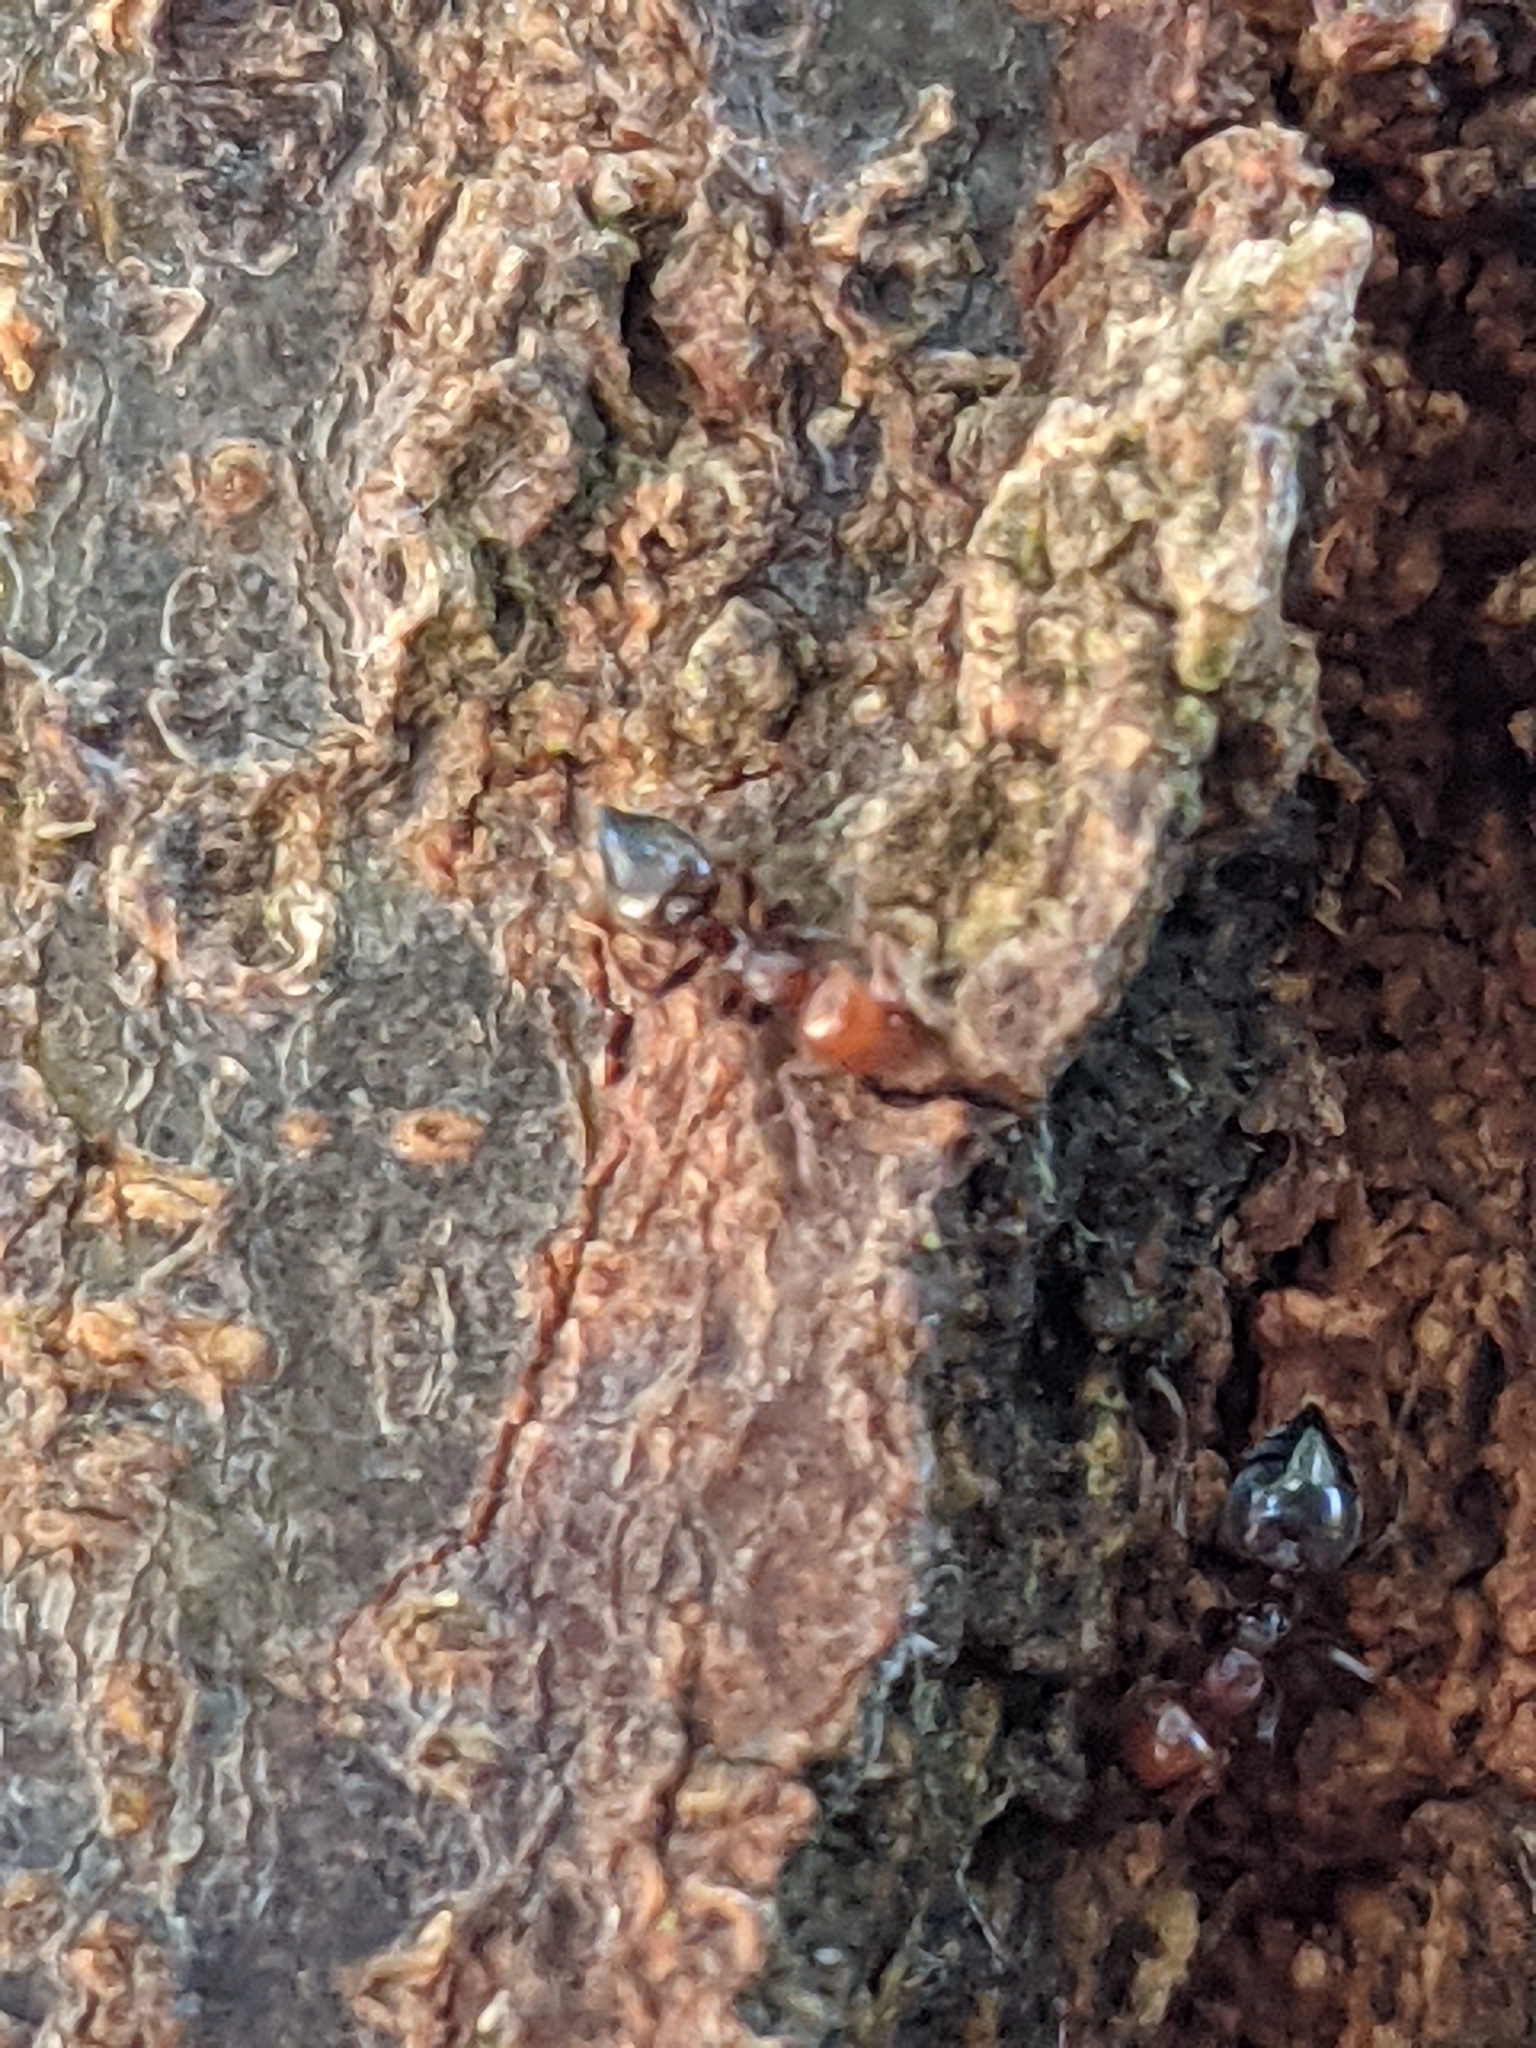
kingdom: Animalia
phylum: Arthropoda
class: Insecta
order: Hymenoptera
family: Formicidae
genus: Crematogaster
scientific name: Crematogaster scutellaris
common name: Fourmi du liège
